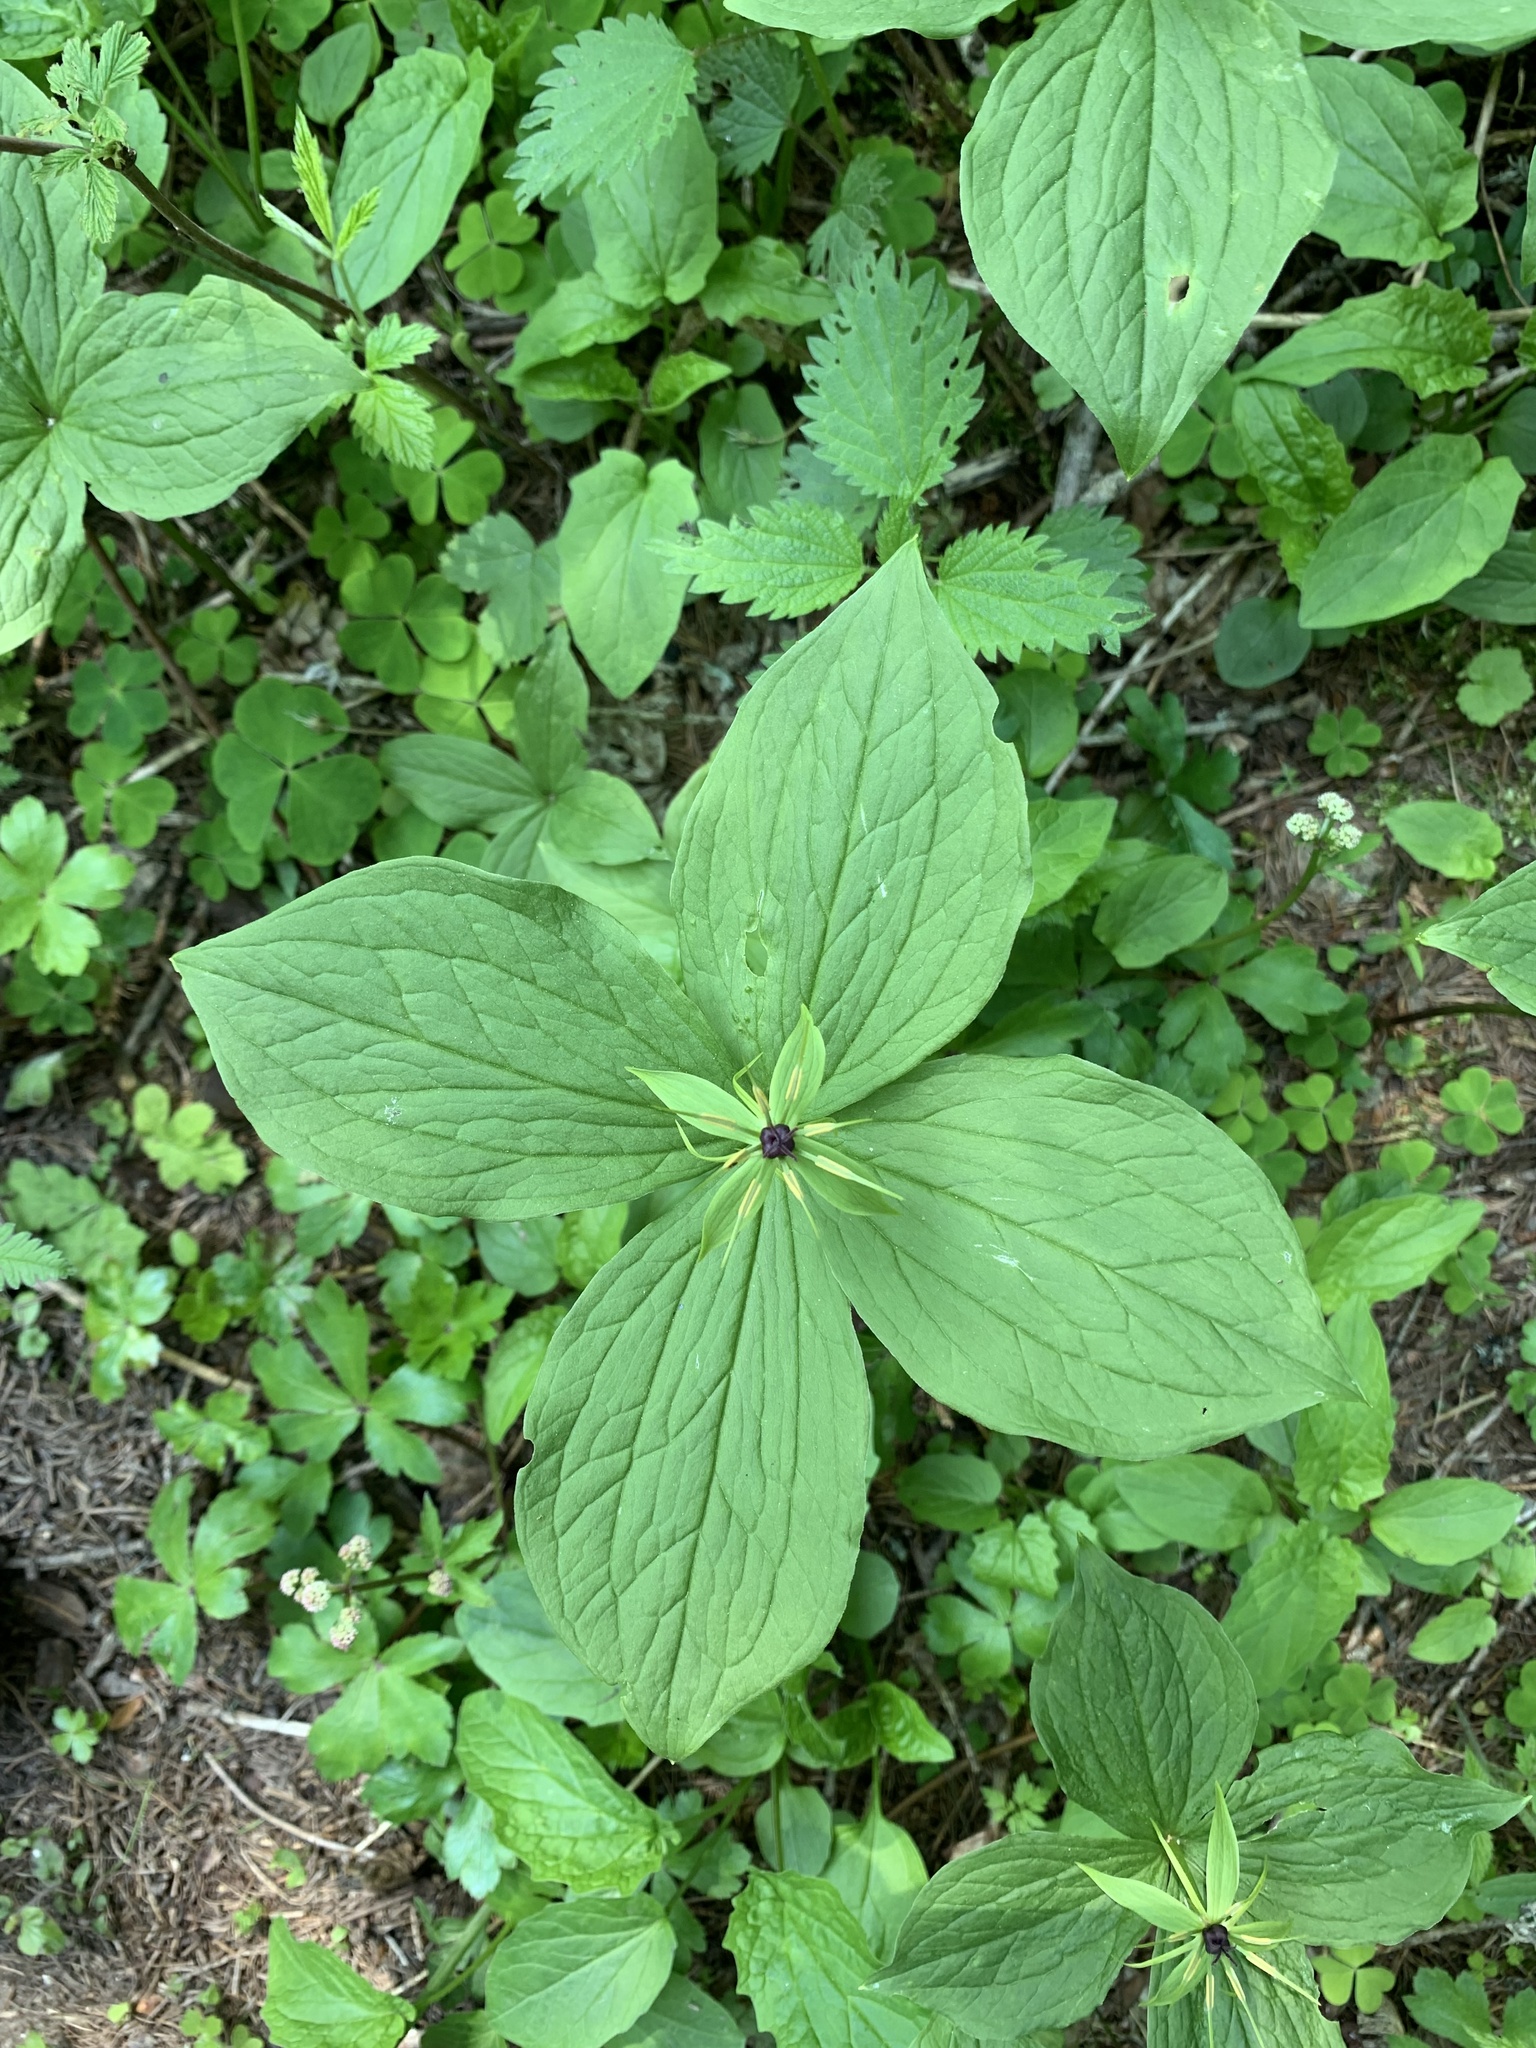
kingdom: Plantae
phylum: Tracheophyta
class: Liliopsida
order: Liliales
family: Melanthiaceae
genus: Paris
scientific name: Paris quadrifolia
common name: Herb-paris
